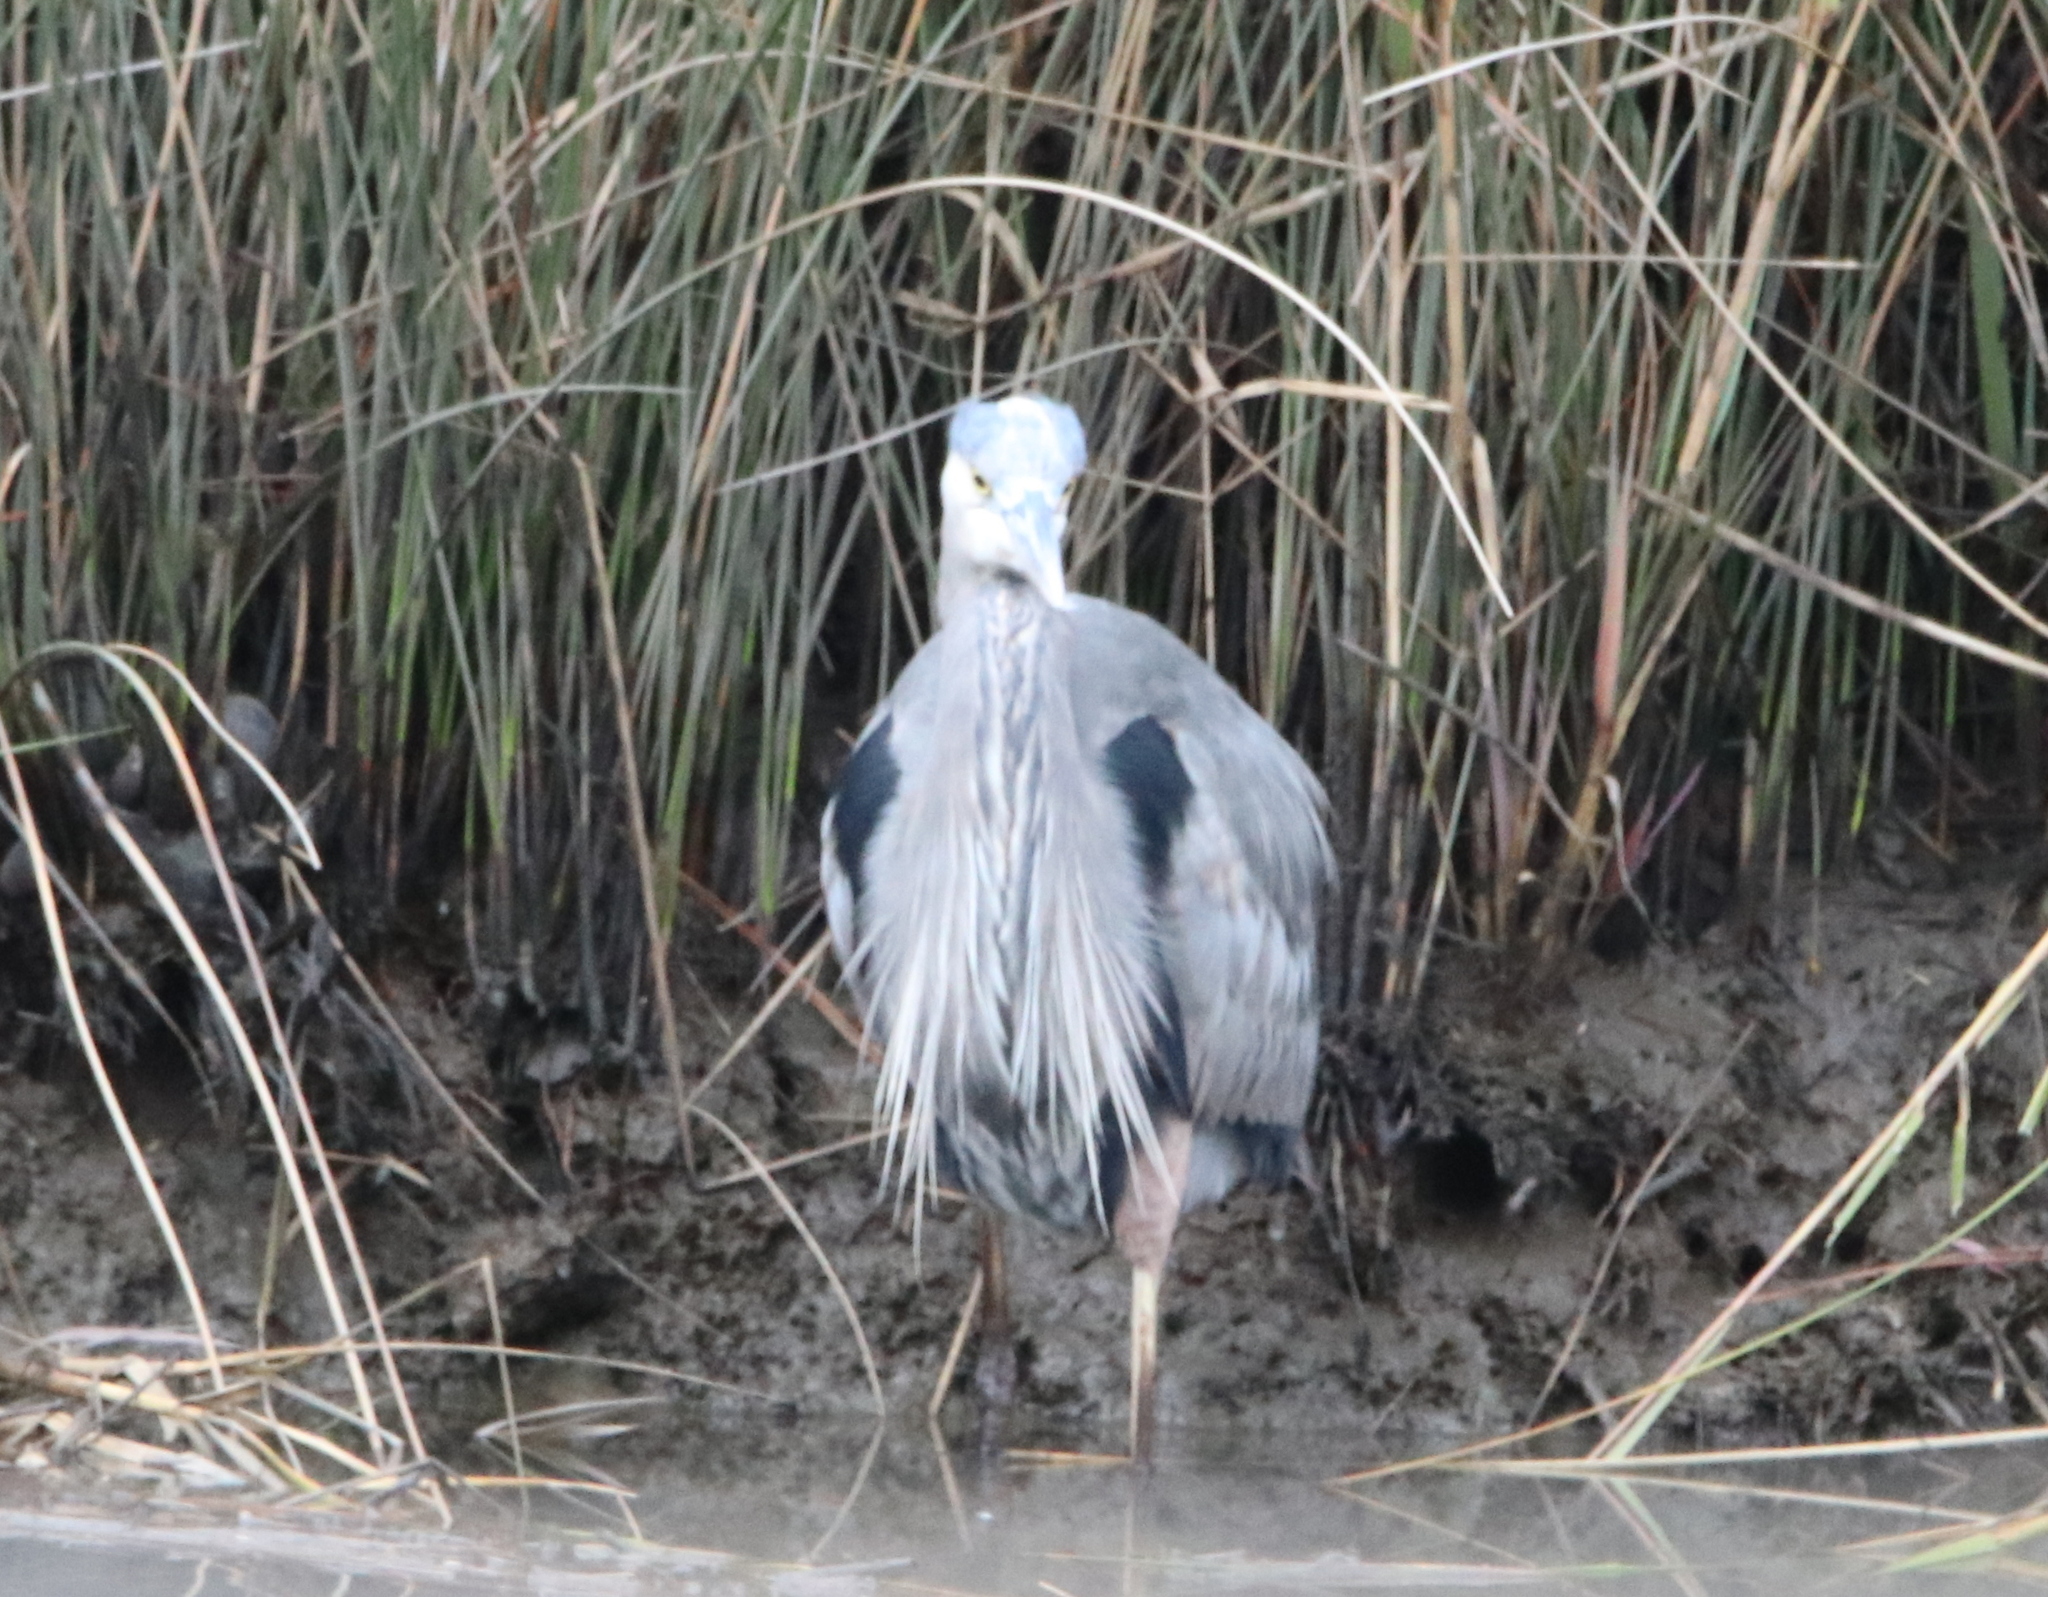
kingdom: Animalia
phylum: Chordata
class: Aves
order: Pelecaniformes
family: Ardeidae
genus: Ardea
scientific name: Ardea herodias
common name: Great blue heron
